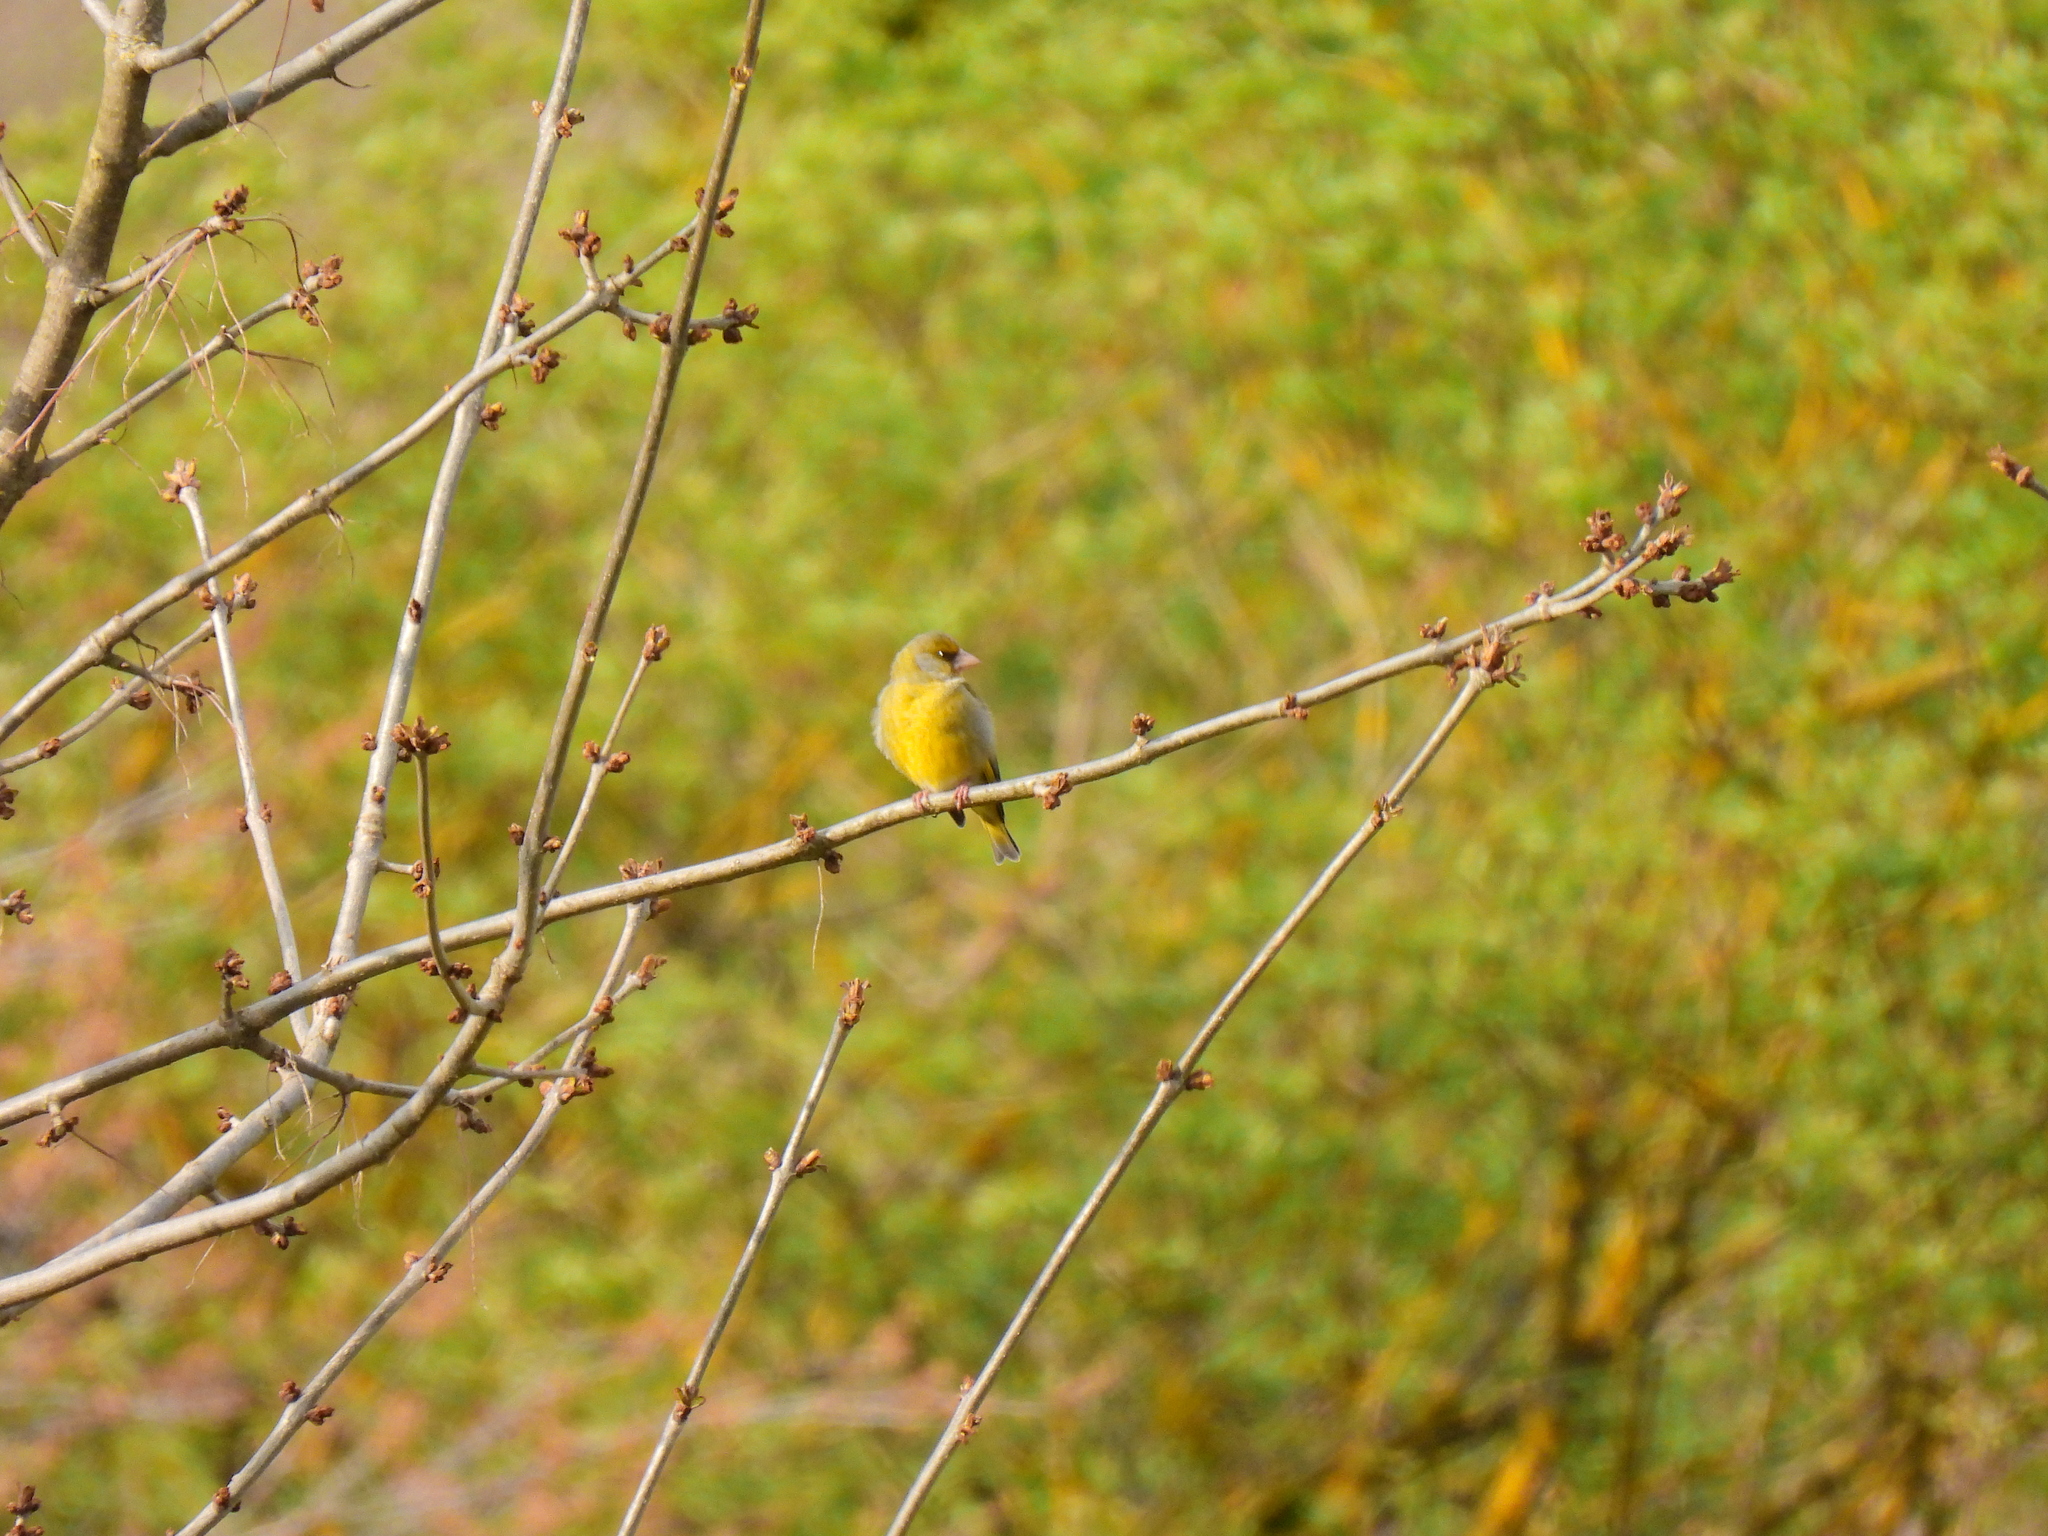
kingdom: Plantae
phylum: Tracheophyta
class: Liliopsida
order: Poales
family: Poaceae
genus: Chloris
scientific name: Chloris chloris
